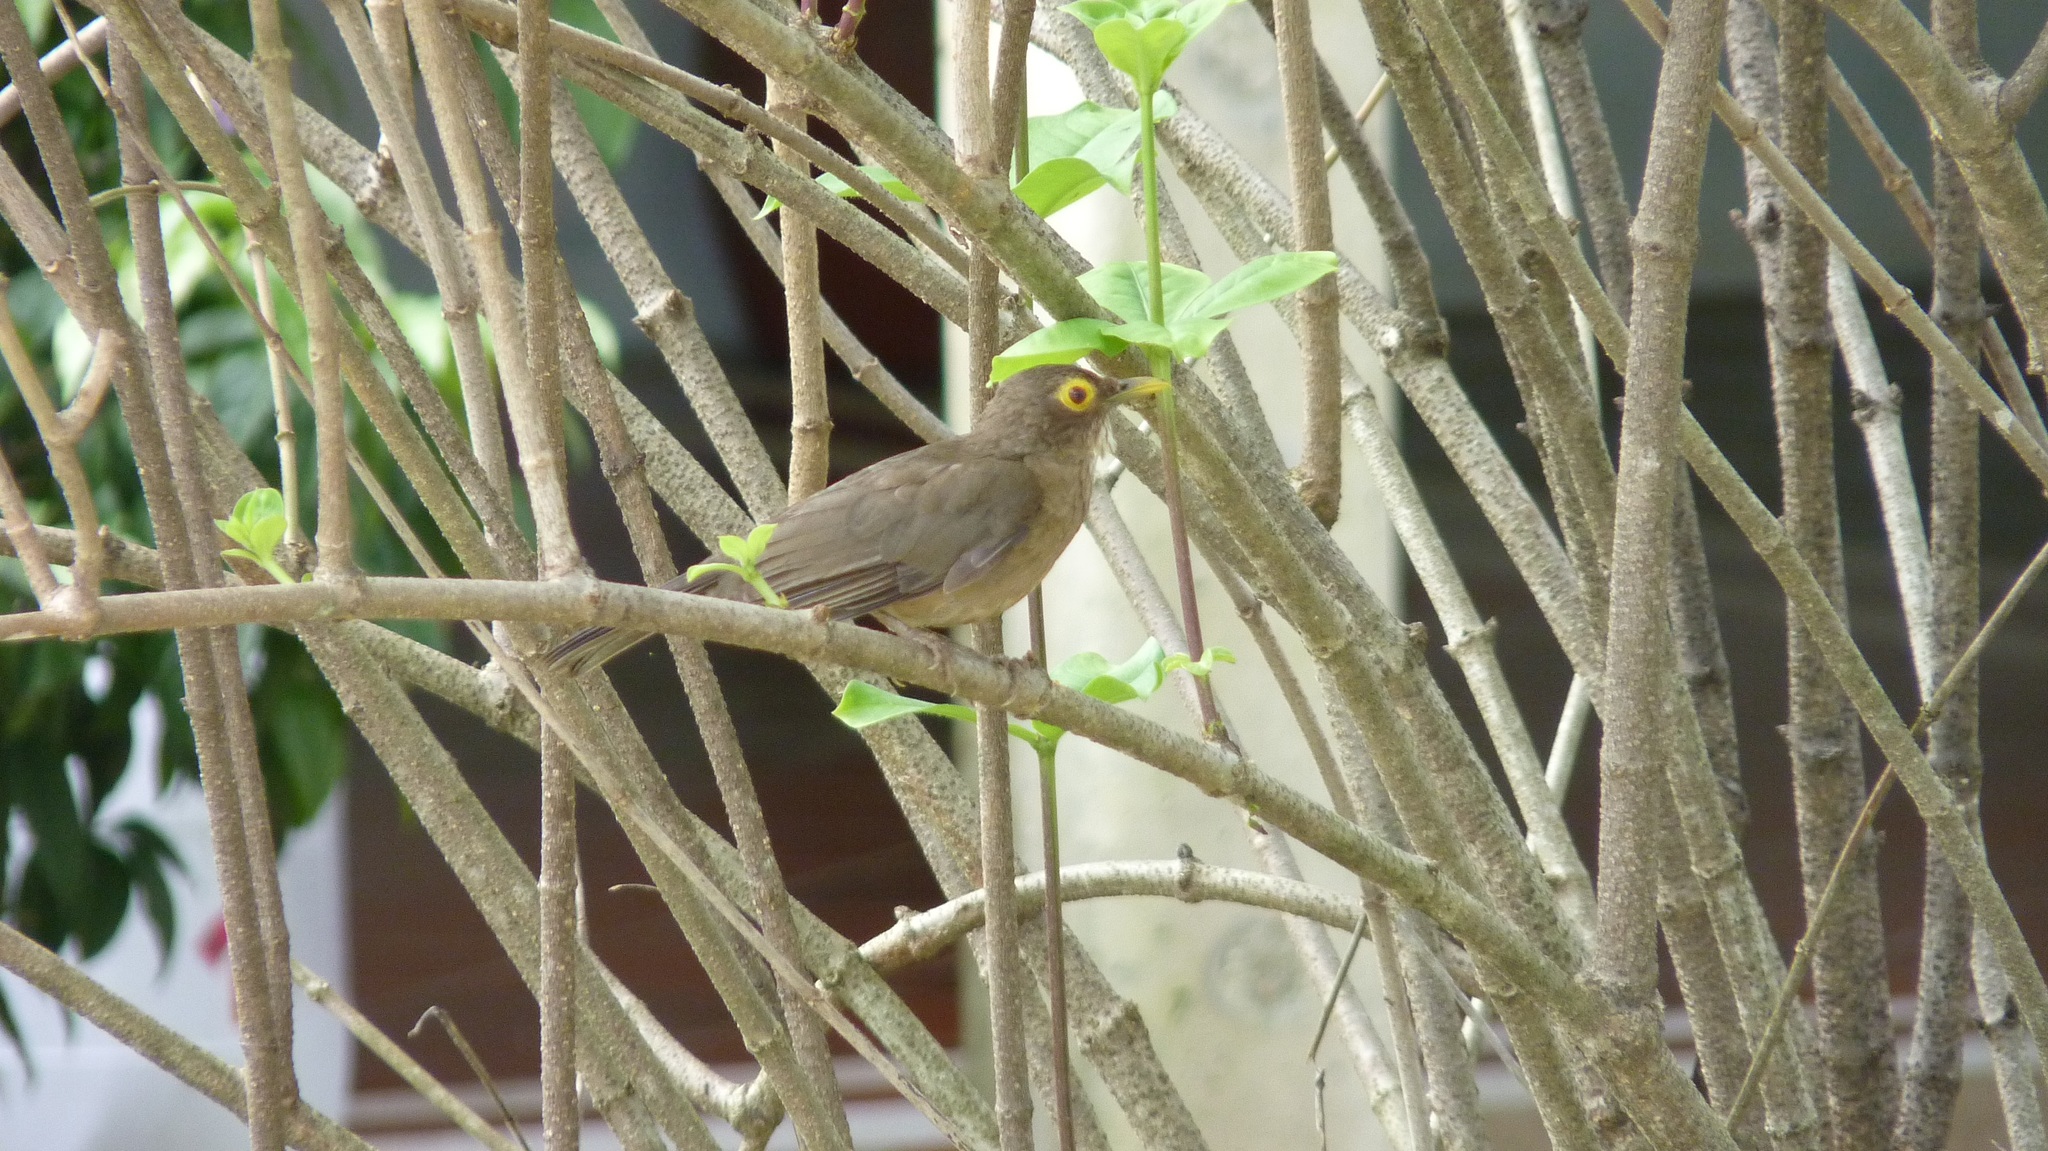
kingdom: Animalia
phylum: Chordata
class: Aves
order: Passeriformes
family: Turdidae
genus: Turdus
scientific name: Turdus nudigenis
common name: Spectacled thrush
